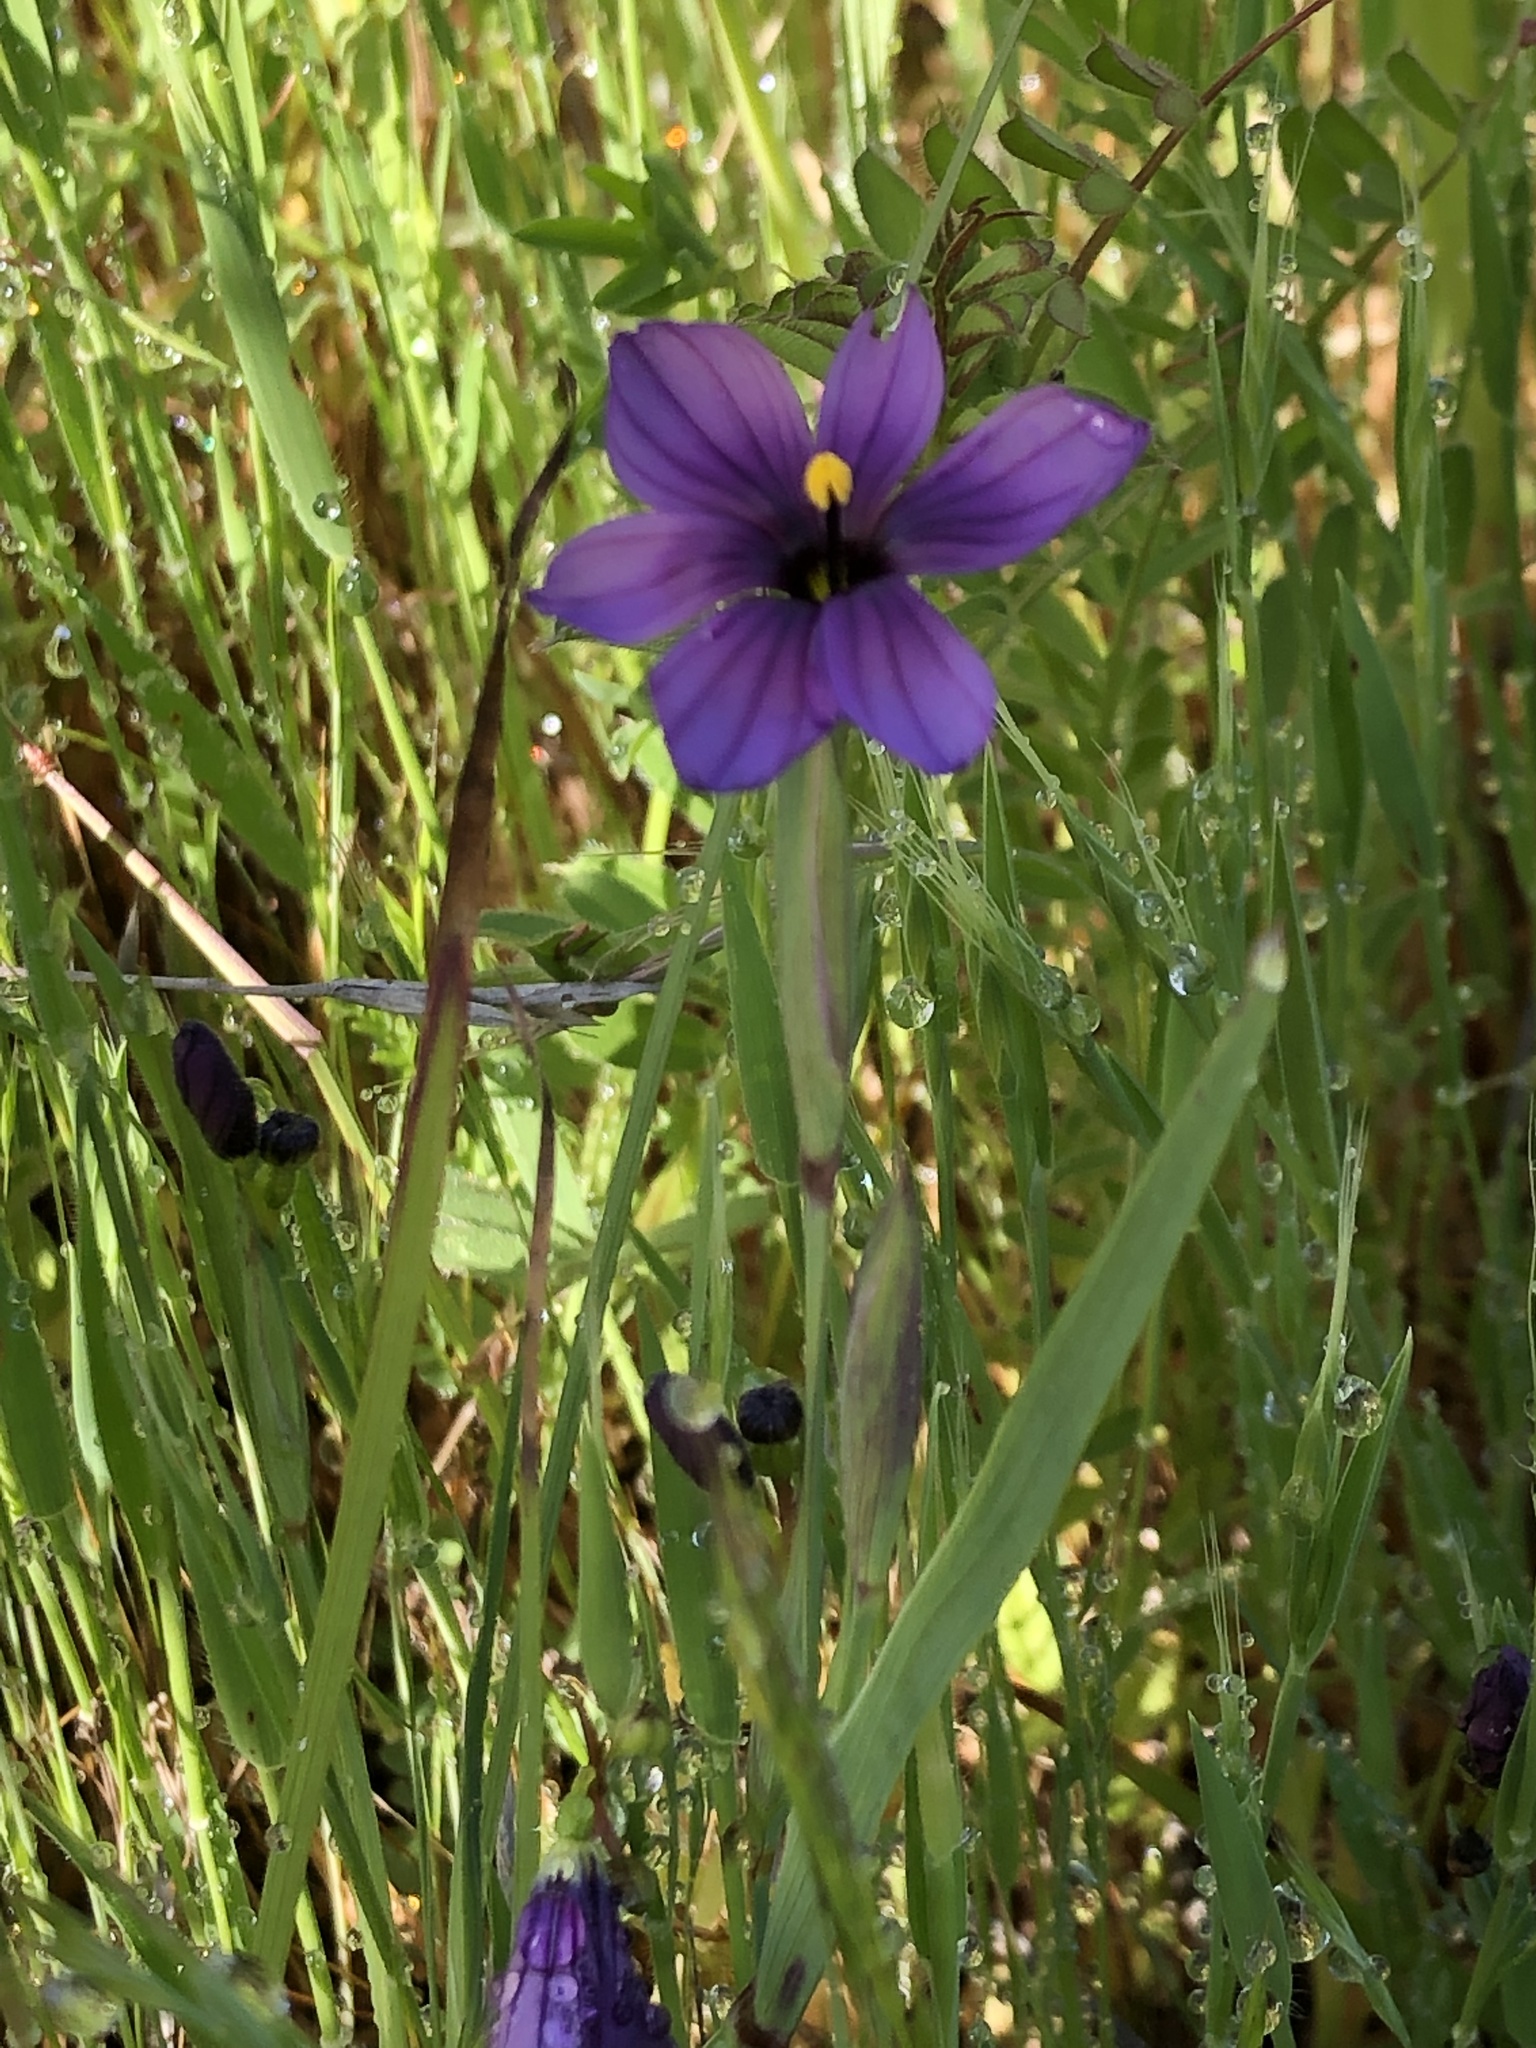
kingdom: Plantae
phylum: Tracheophyta
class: Liliopsida
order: Asparagales
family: Iridaceae
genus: Sisyrinchium
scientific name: Sisyrinchium bellum
